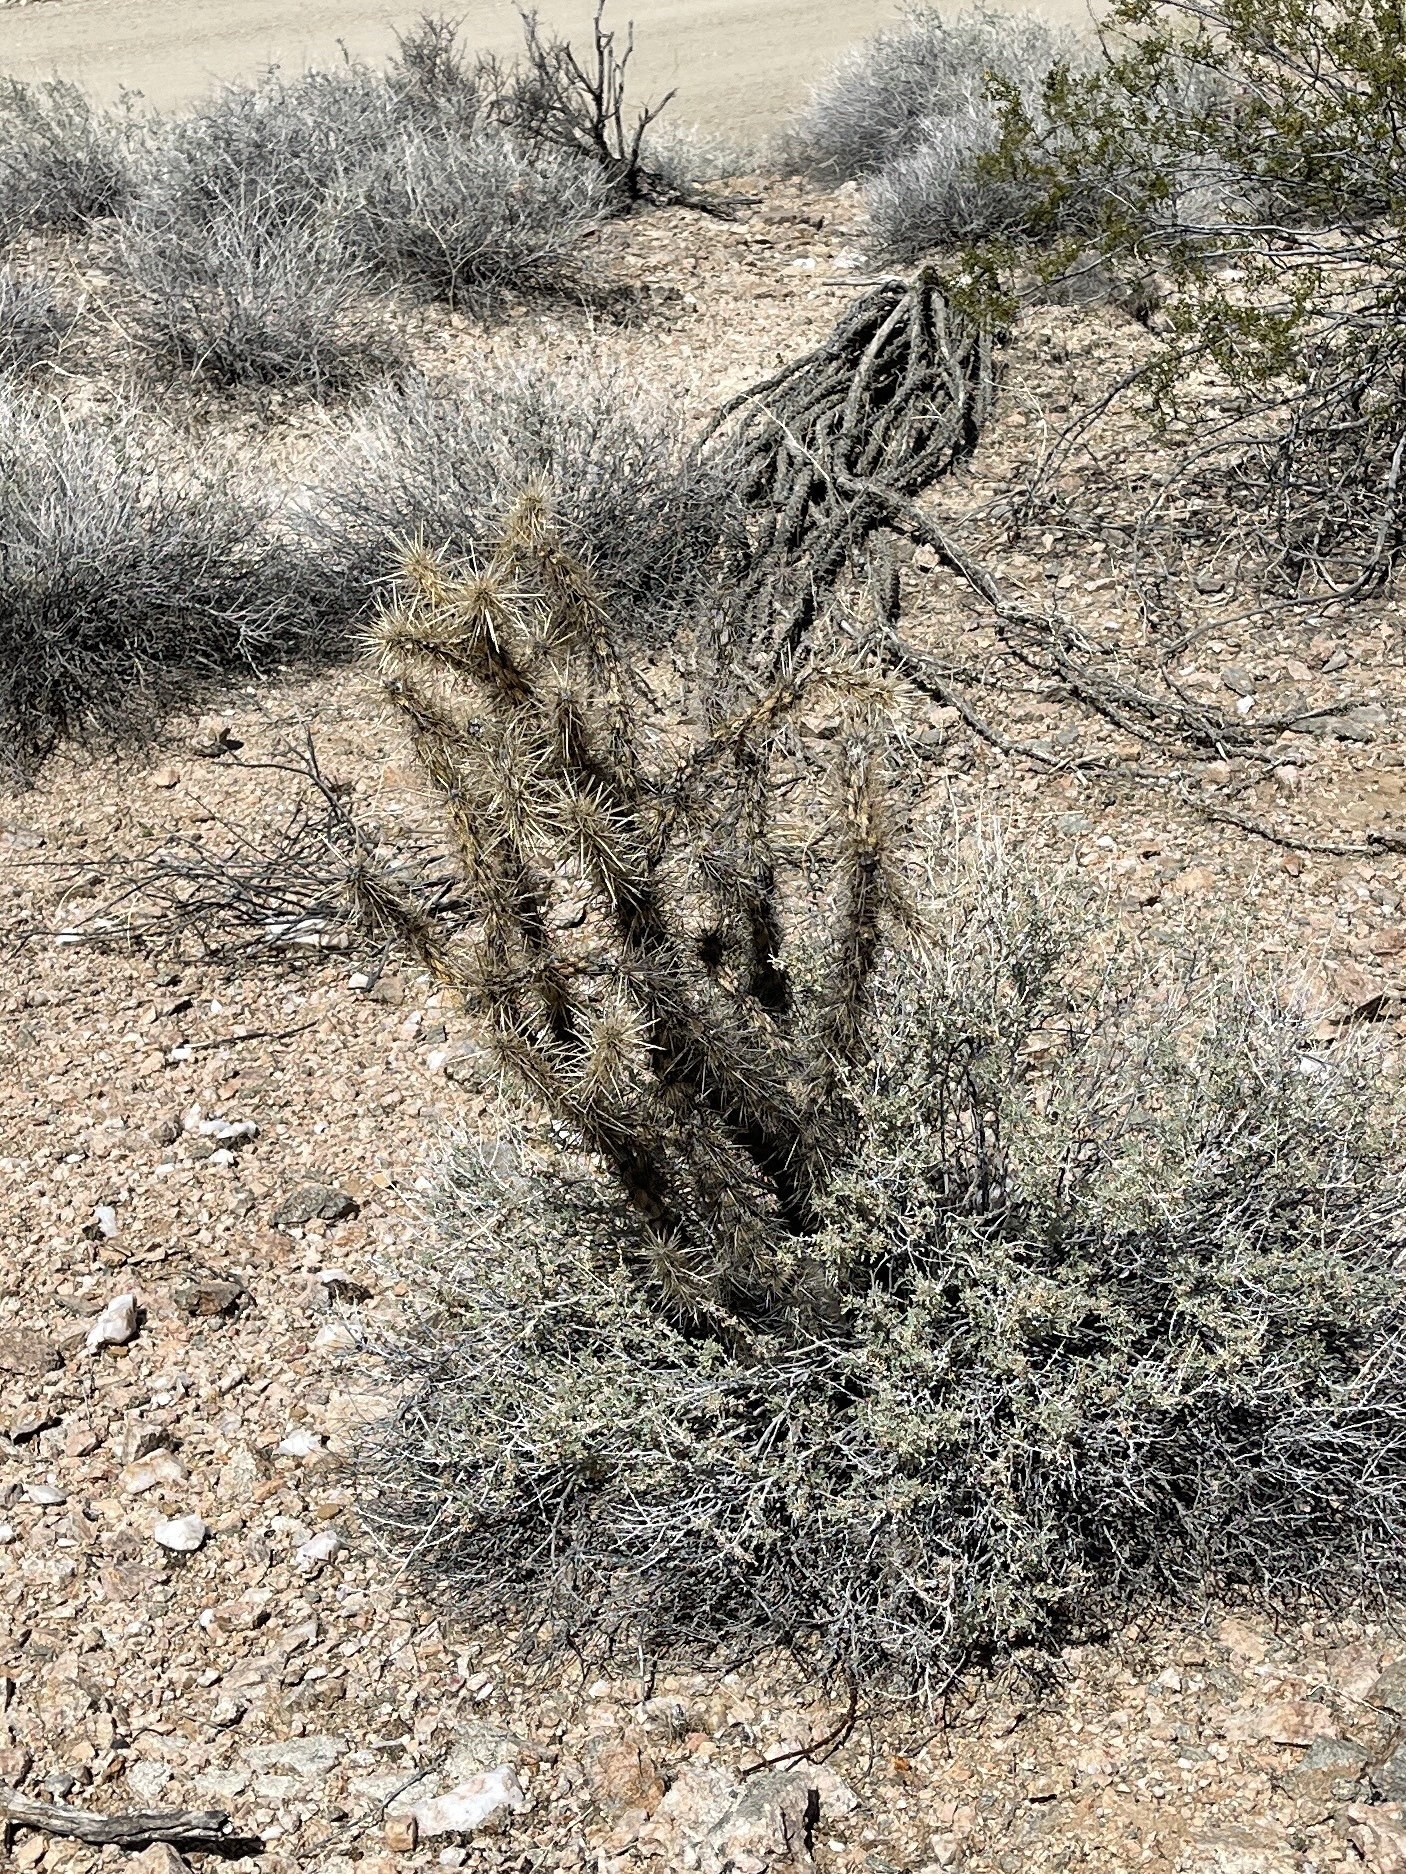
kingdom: Plantae
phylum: Tracheophyta
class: Magnoliopsida
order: Caryophyllales
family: Cactaceae
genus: Cylindropuntia
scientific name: Cylindropuntia acanthocarpa
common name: Buckhorn cholla
